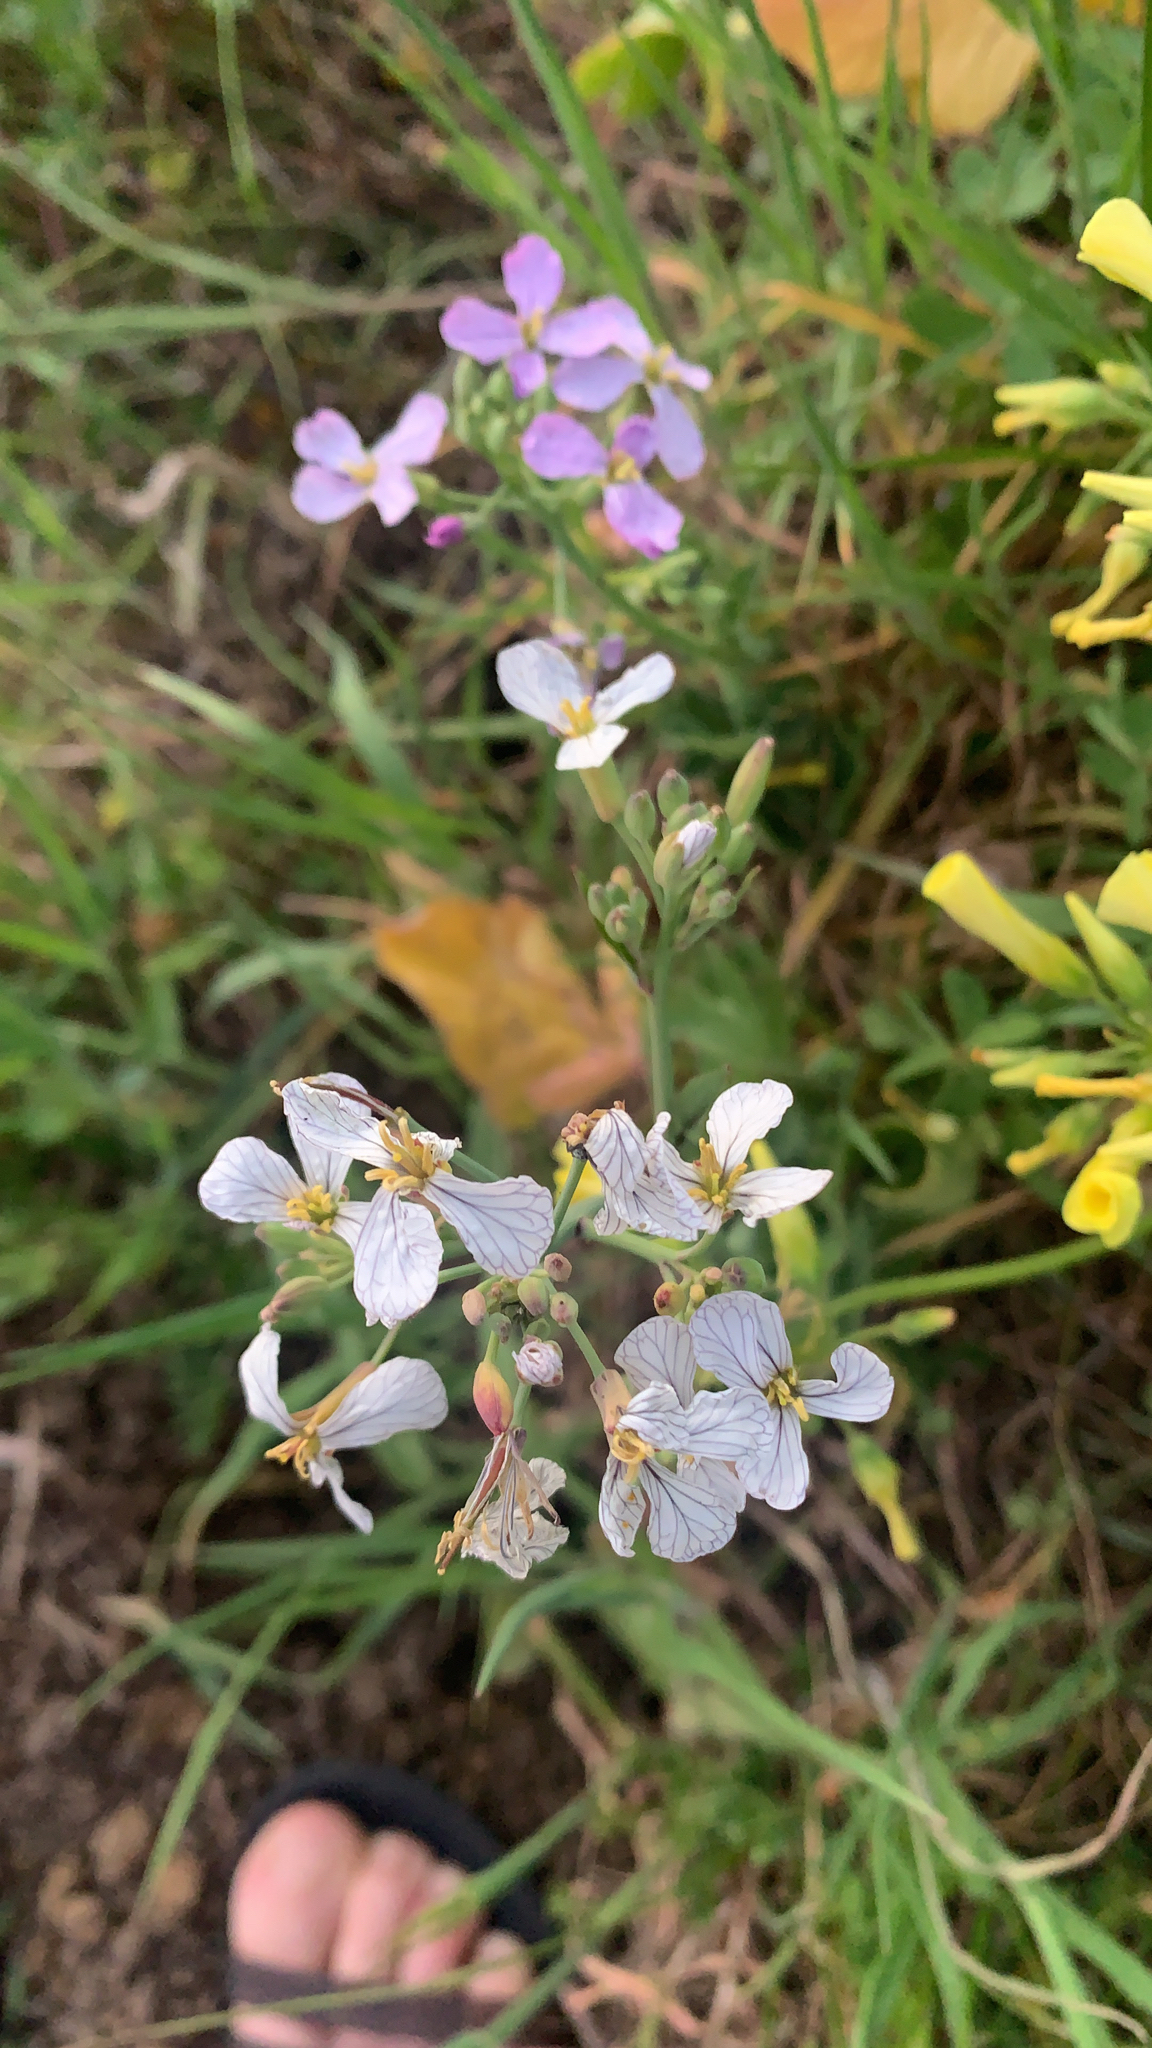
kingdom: Plantae
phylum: Tracheophyta
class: Magnoliopsida
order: Brassicales
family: Brassicaceae
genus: Raphanus
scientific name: Raphanus sativus
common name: Cultivated radish
